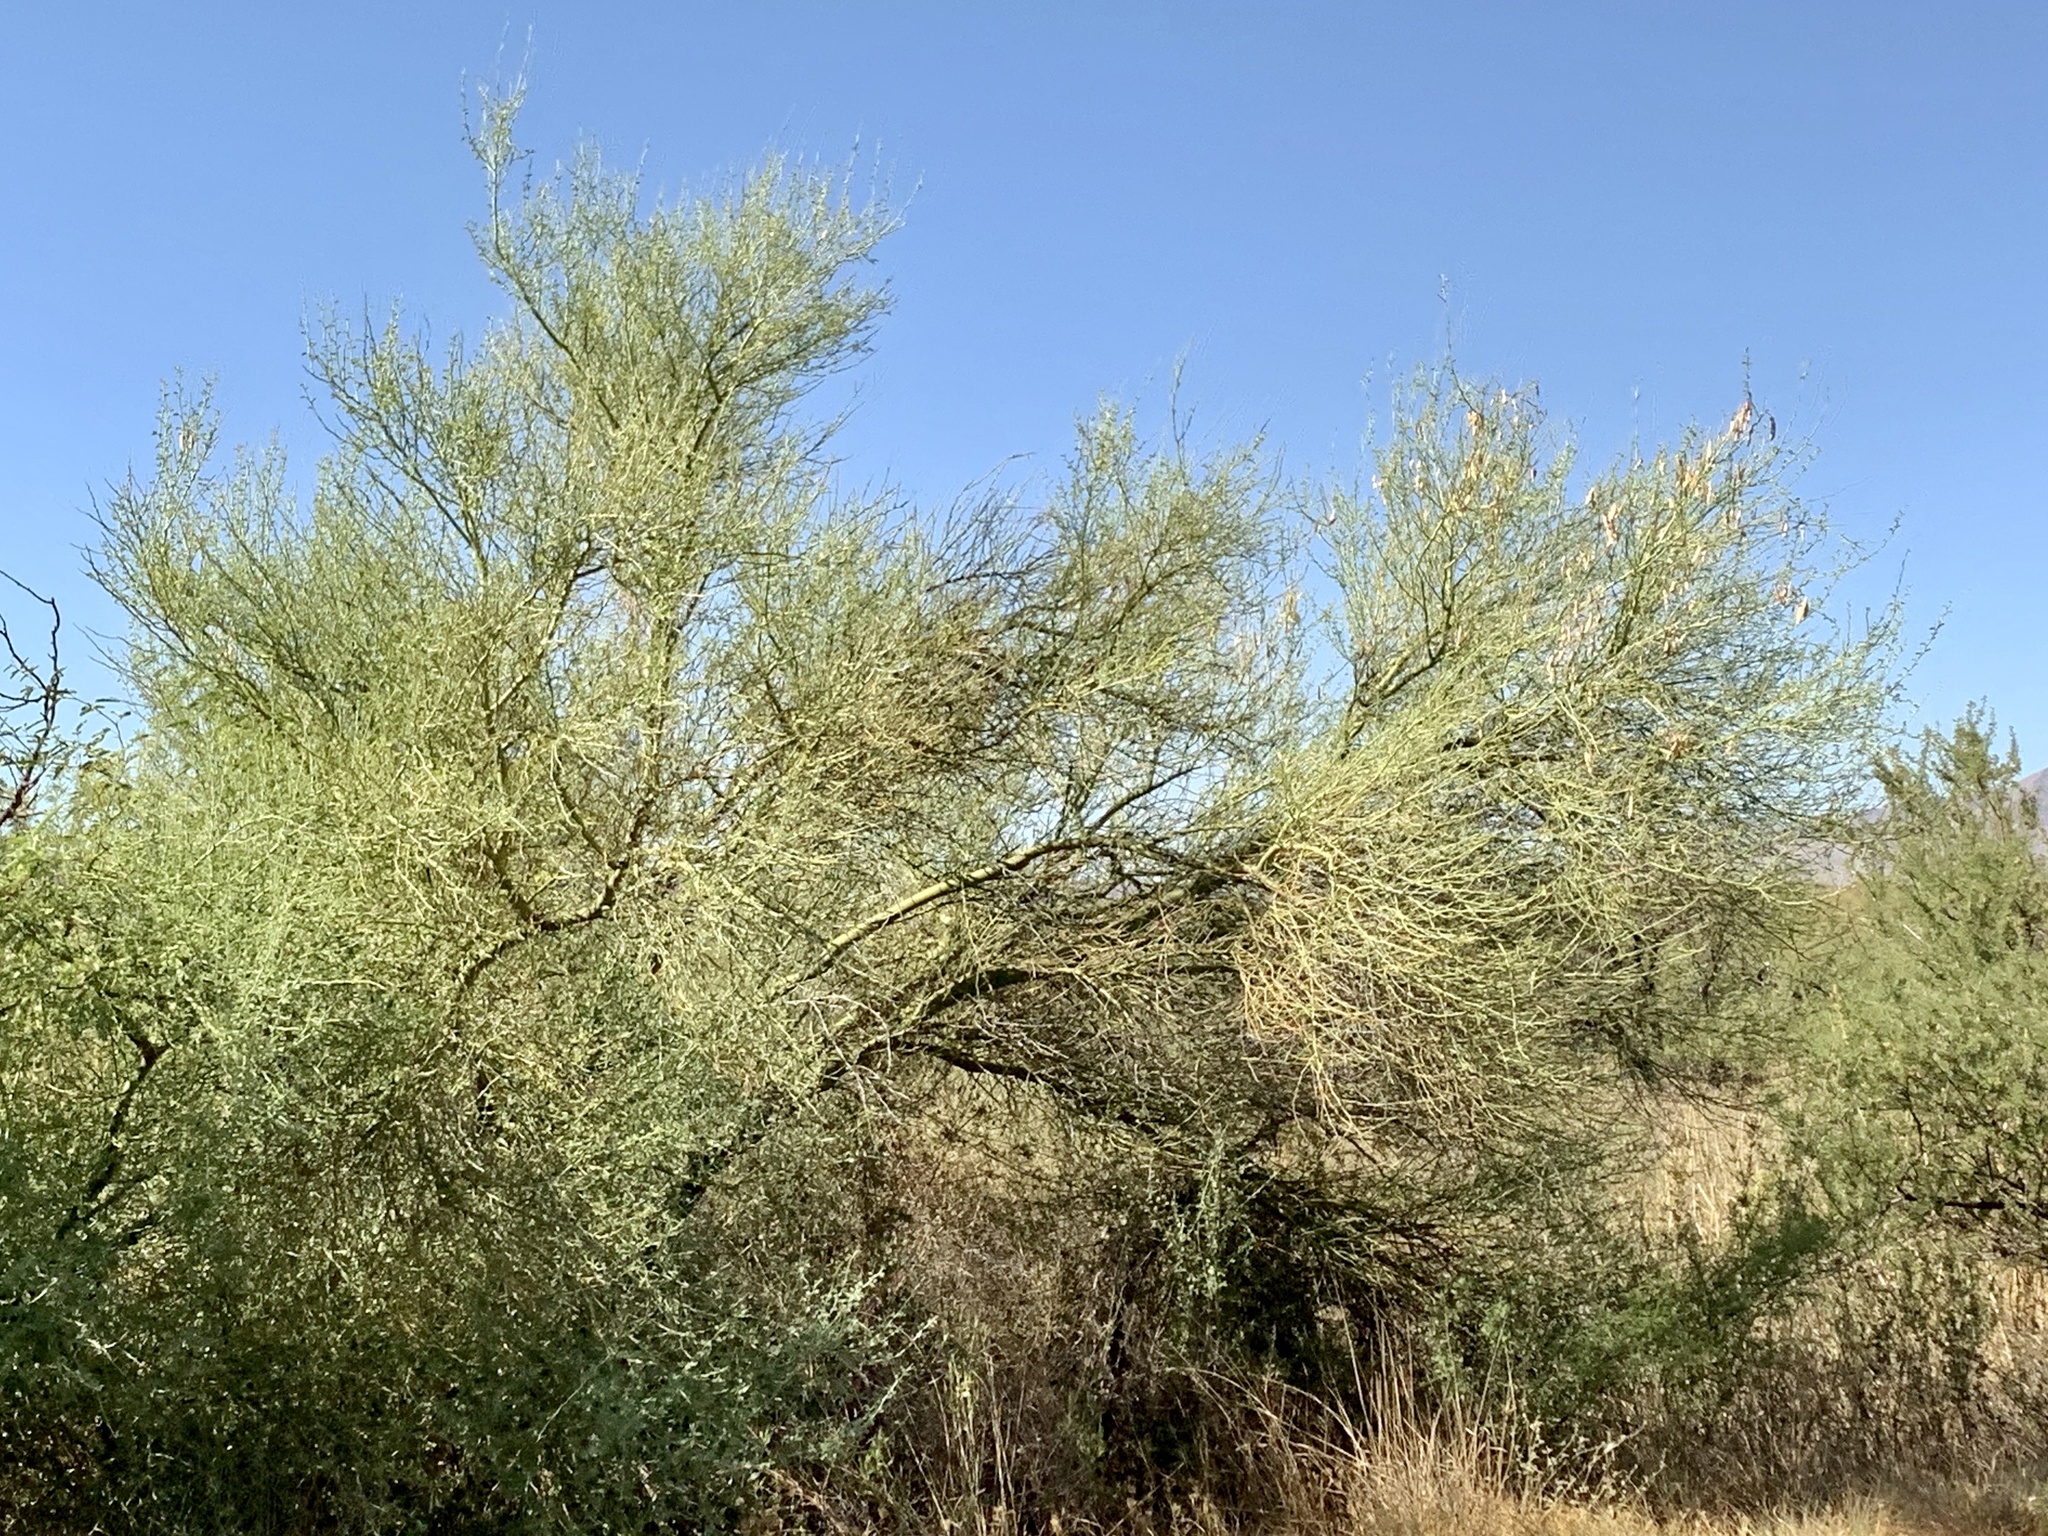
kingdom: Plantae
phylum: Tracheophyta
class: Magnoliopsida
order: Fabales
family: Fabaceae
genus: Parkinsonia
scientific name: Parkinsonia florida
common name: Blue paloverde
